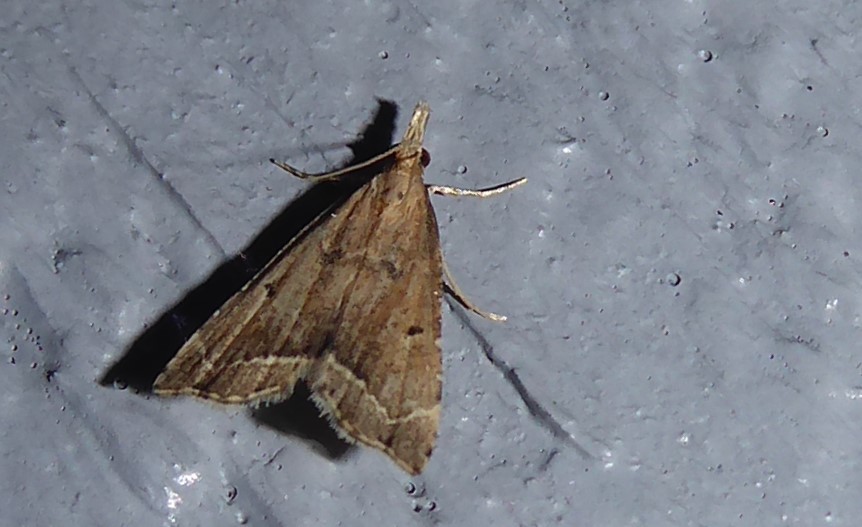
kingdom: Animalia
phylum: Arthropoda
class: Insecta
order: Lepidoptera
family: Crambidae
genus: Diplopseustis
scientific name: Diplopseustis perieresalis
